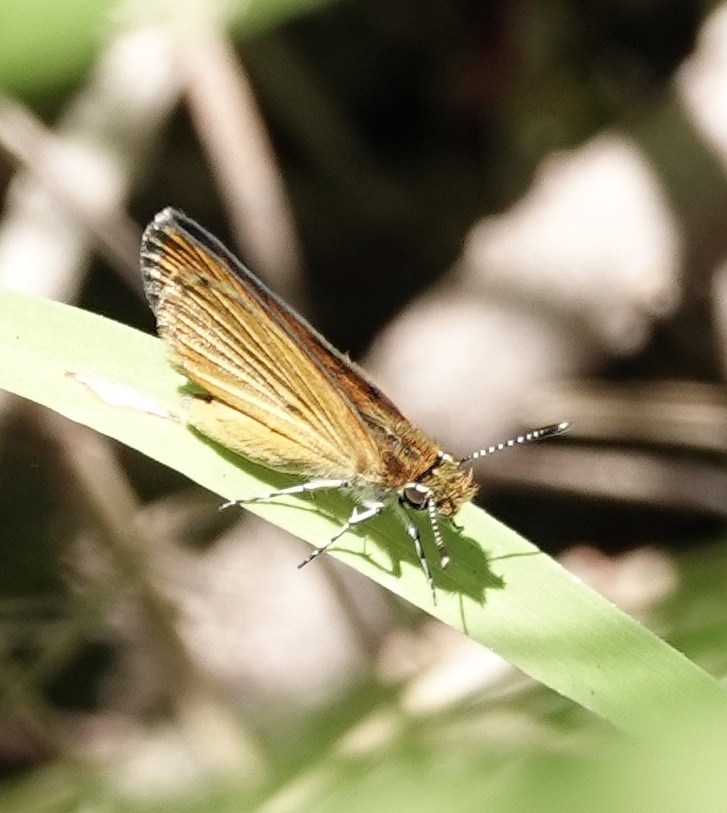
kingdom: Animalia
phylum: Arthropoda
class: Insecta
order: Lepidoptera
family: Hesperiidae
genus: Ancyloxypha
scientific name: Ancyloxypha numitor
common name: Least skipper
